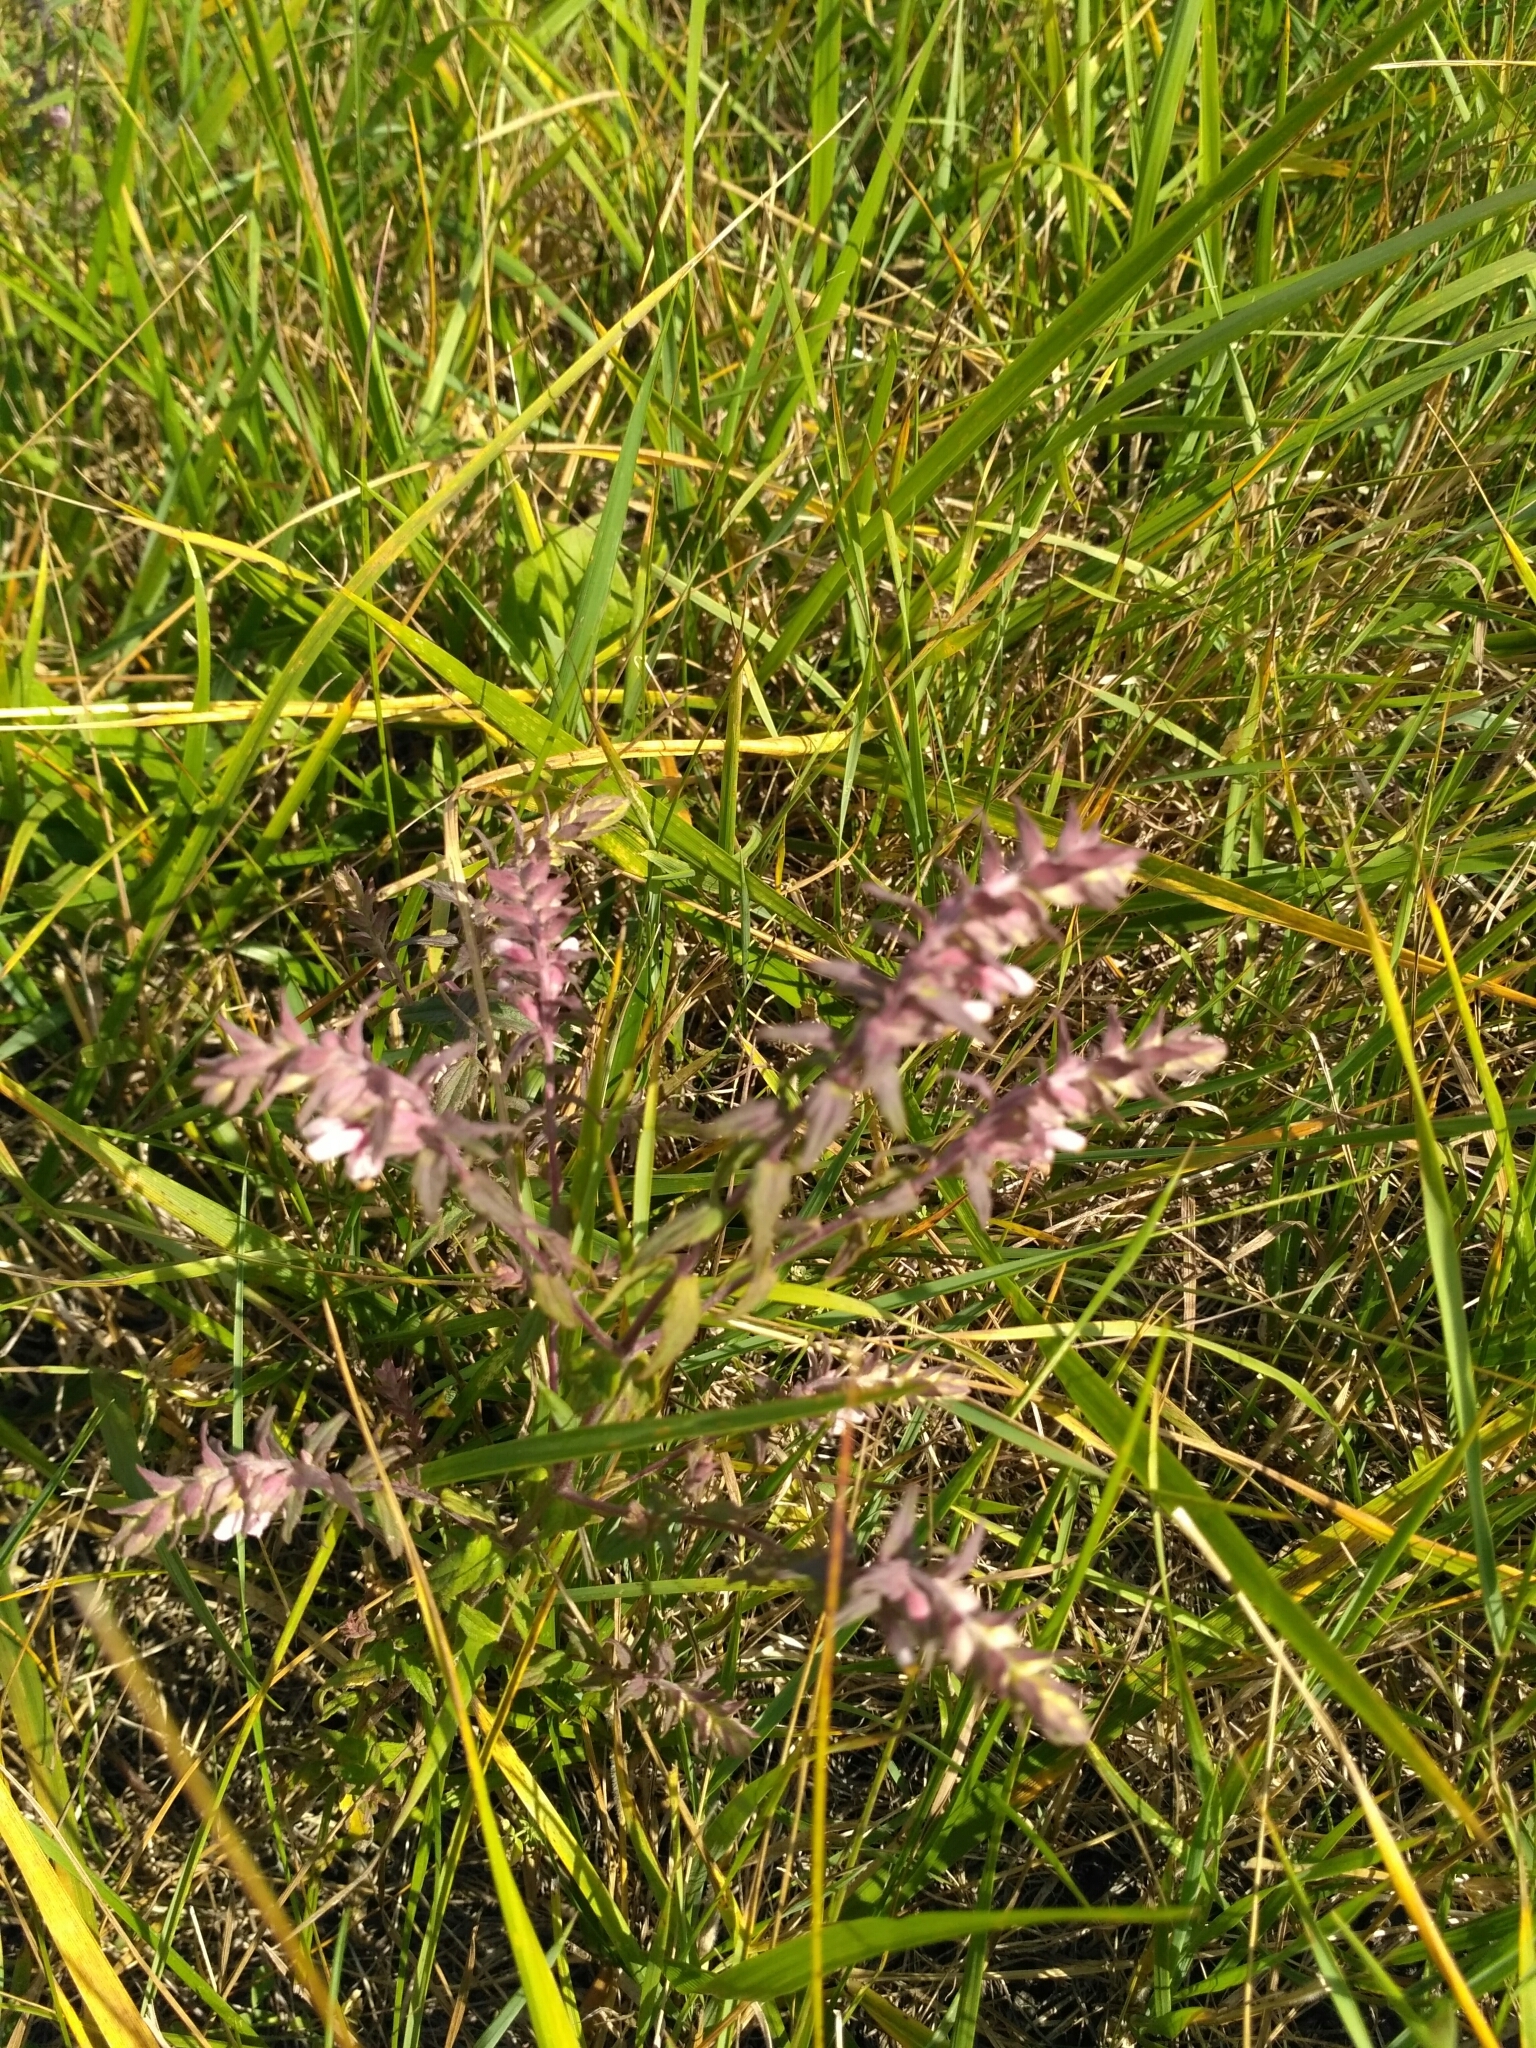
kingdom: Plantae
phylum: Tracheophyta
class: Magnoliopsida
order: Lamiales
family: Orobanchaceae
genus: Odontites
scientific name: Odontites vulgaris
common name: Broomrape
